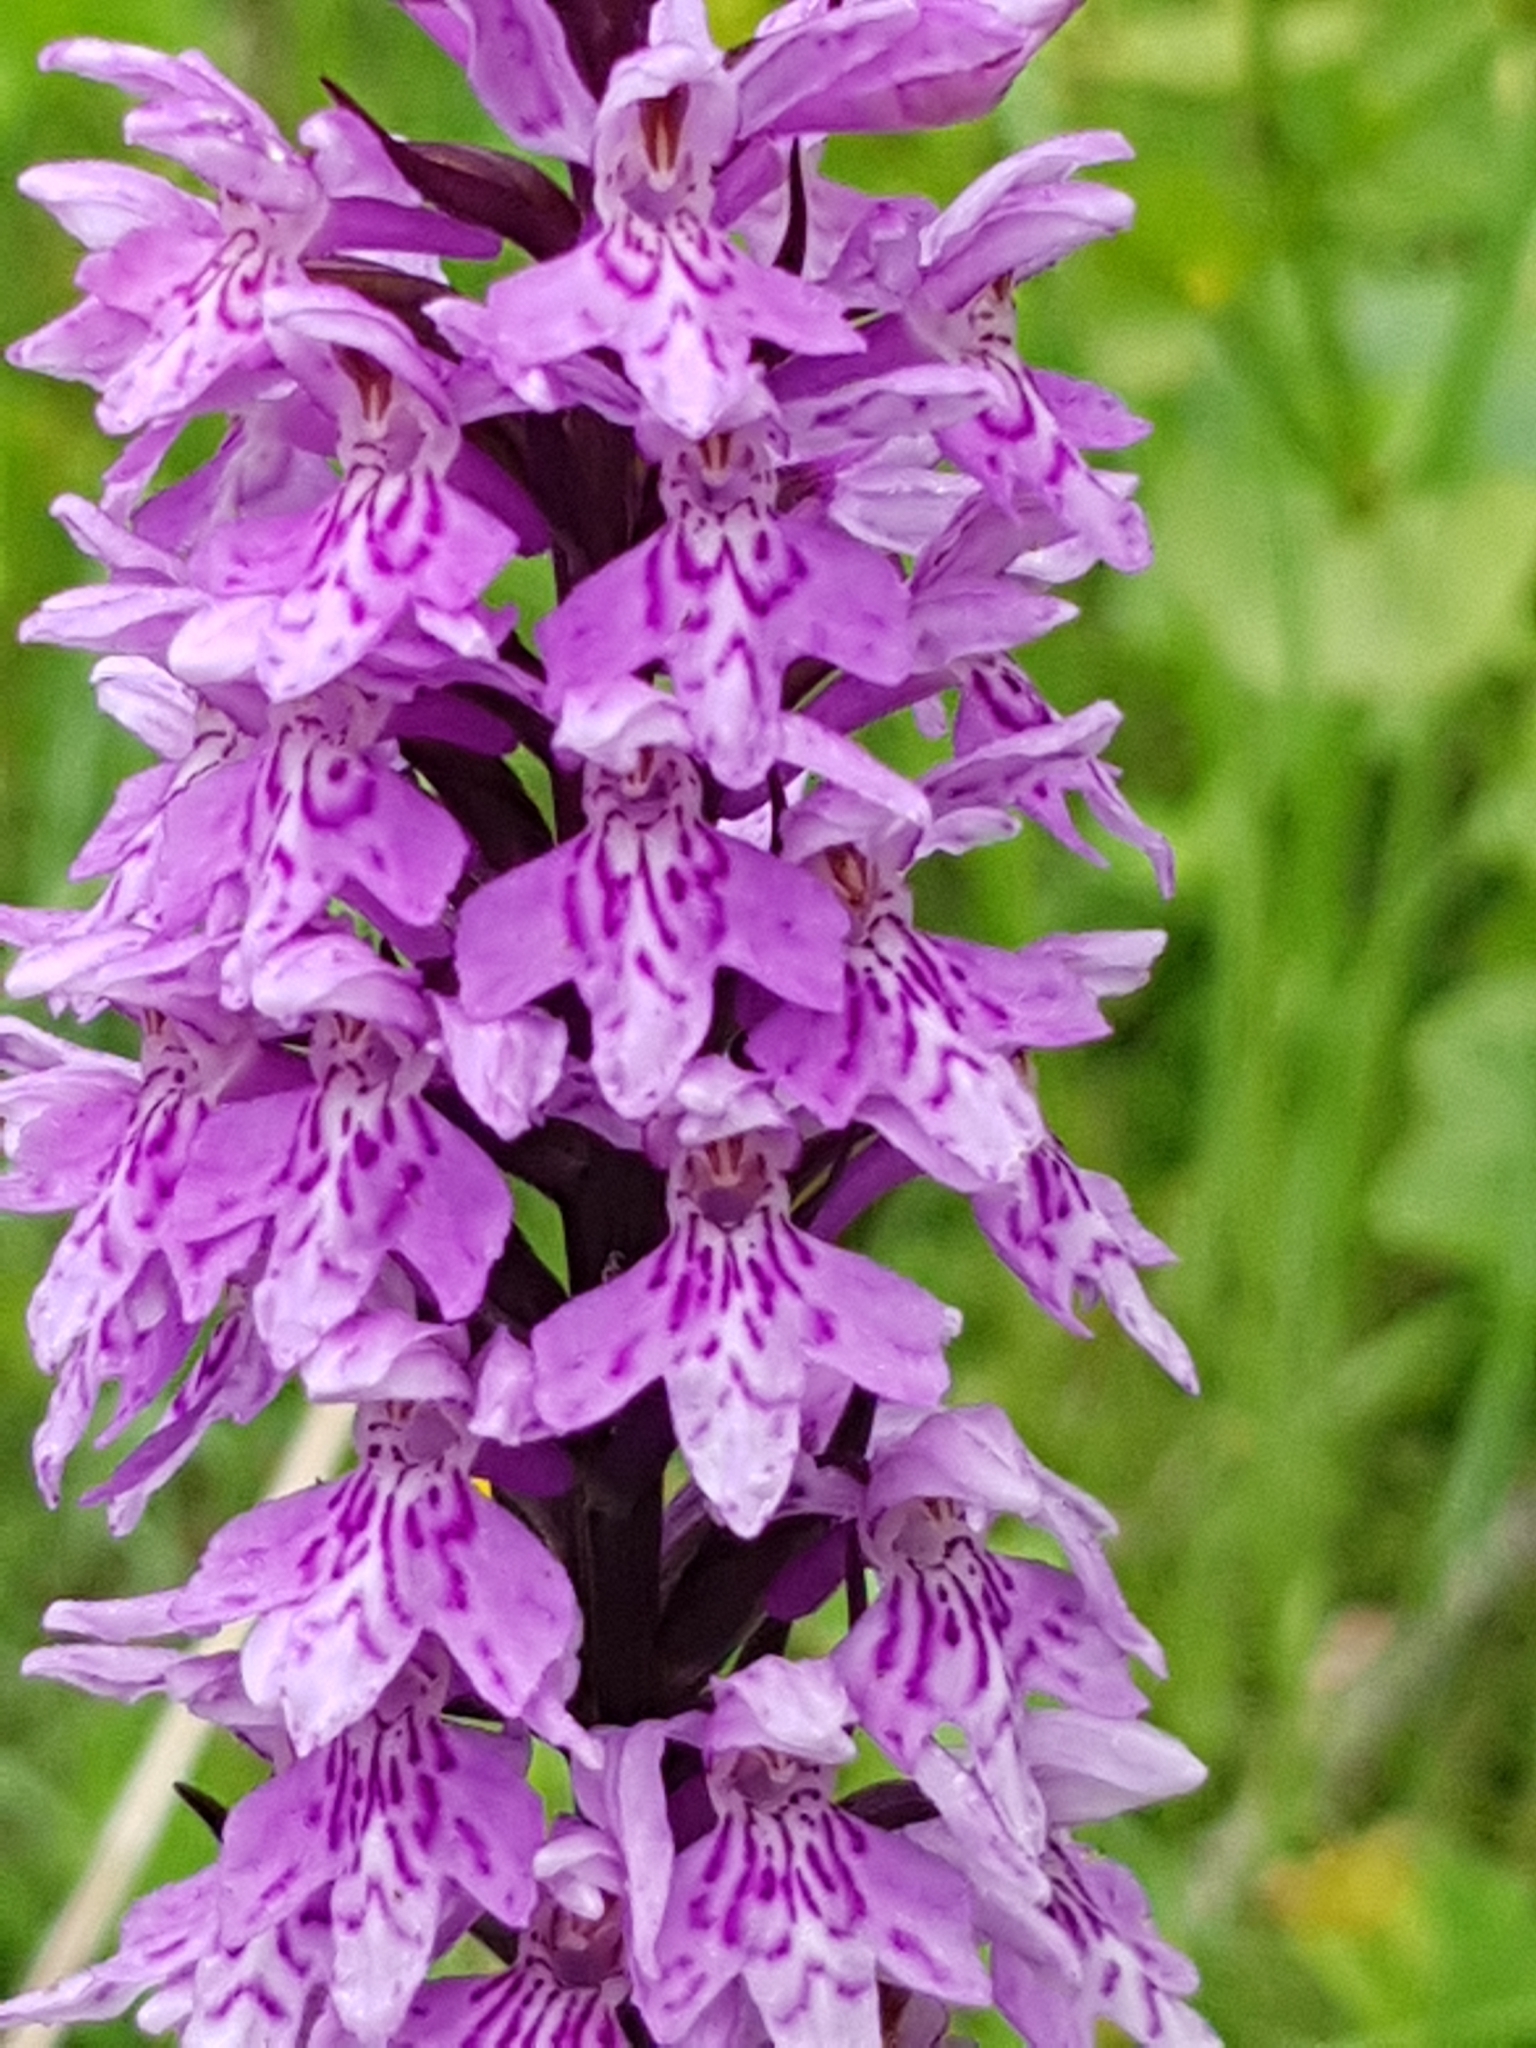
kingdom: Plantae
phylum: Tracheophyta
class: Liliopsida
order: Asparagales
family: Orchidaceae
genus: Dactylorhiza
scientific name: Dactylorhiza maculata
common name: Heath spotted-orchid
